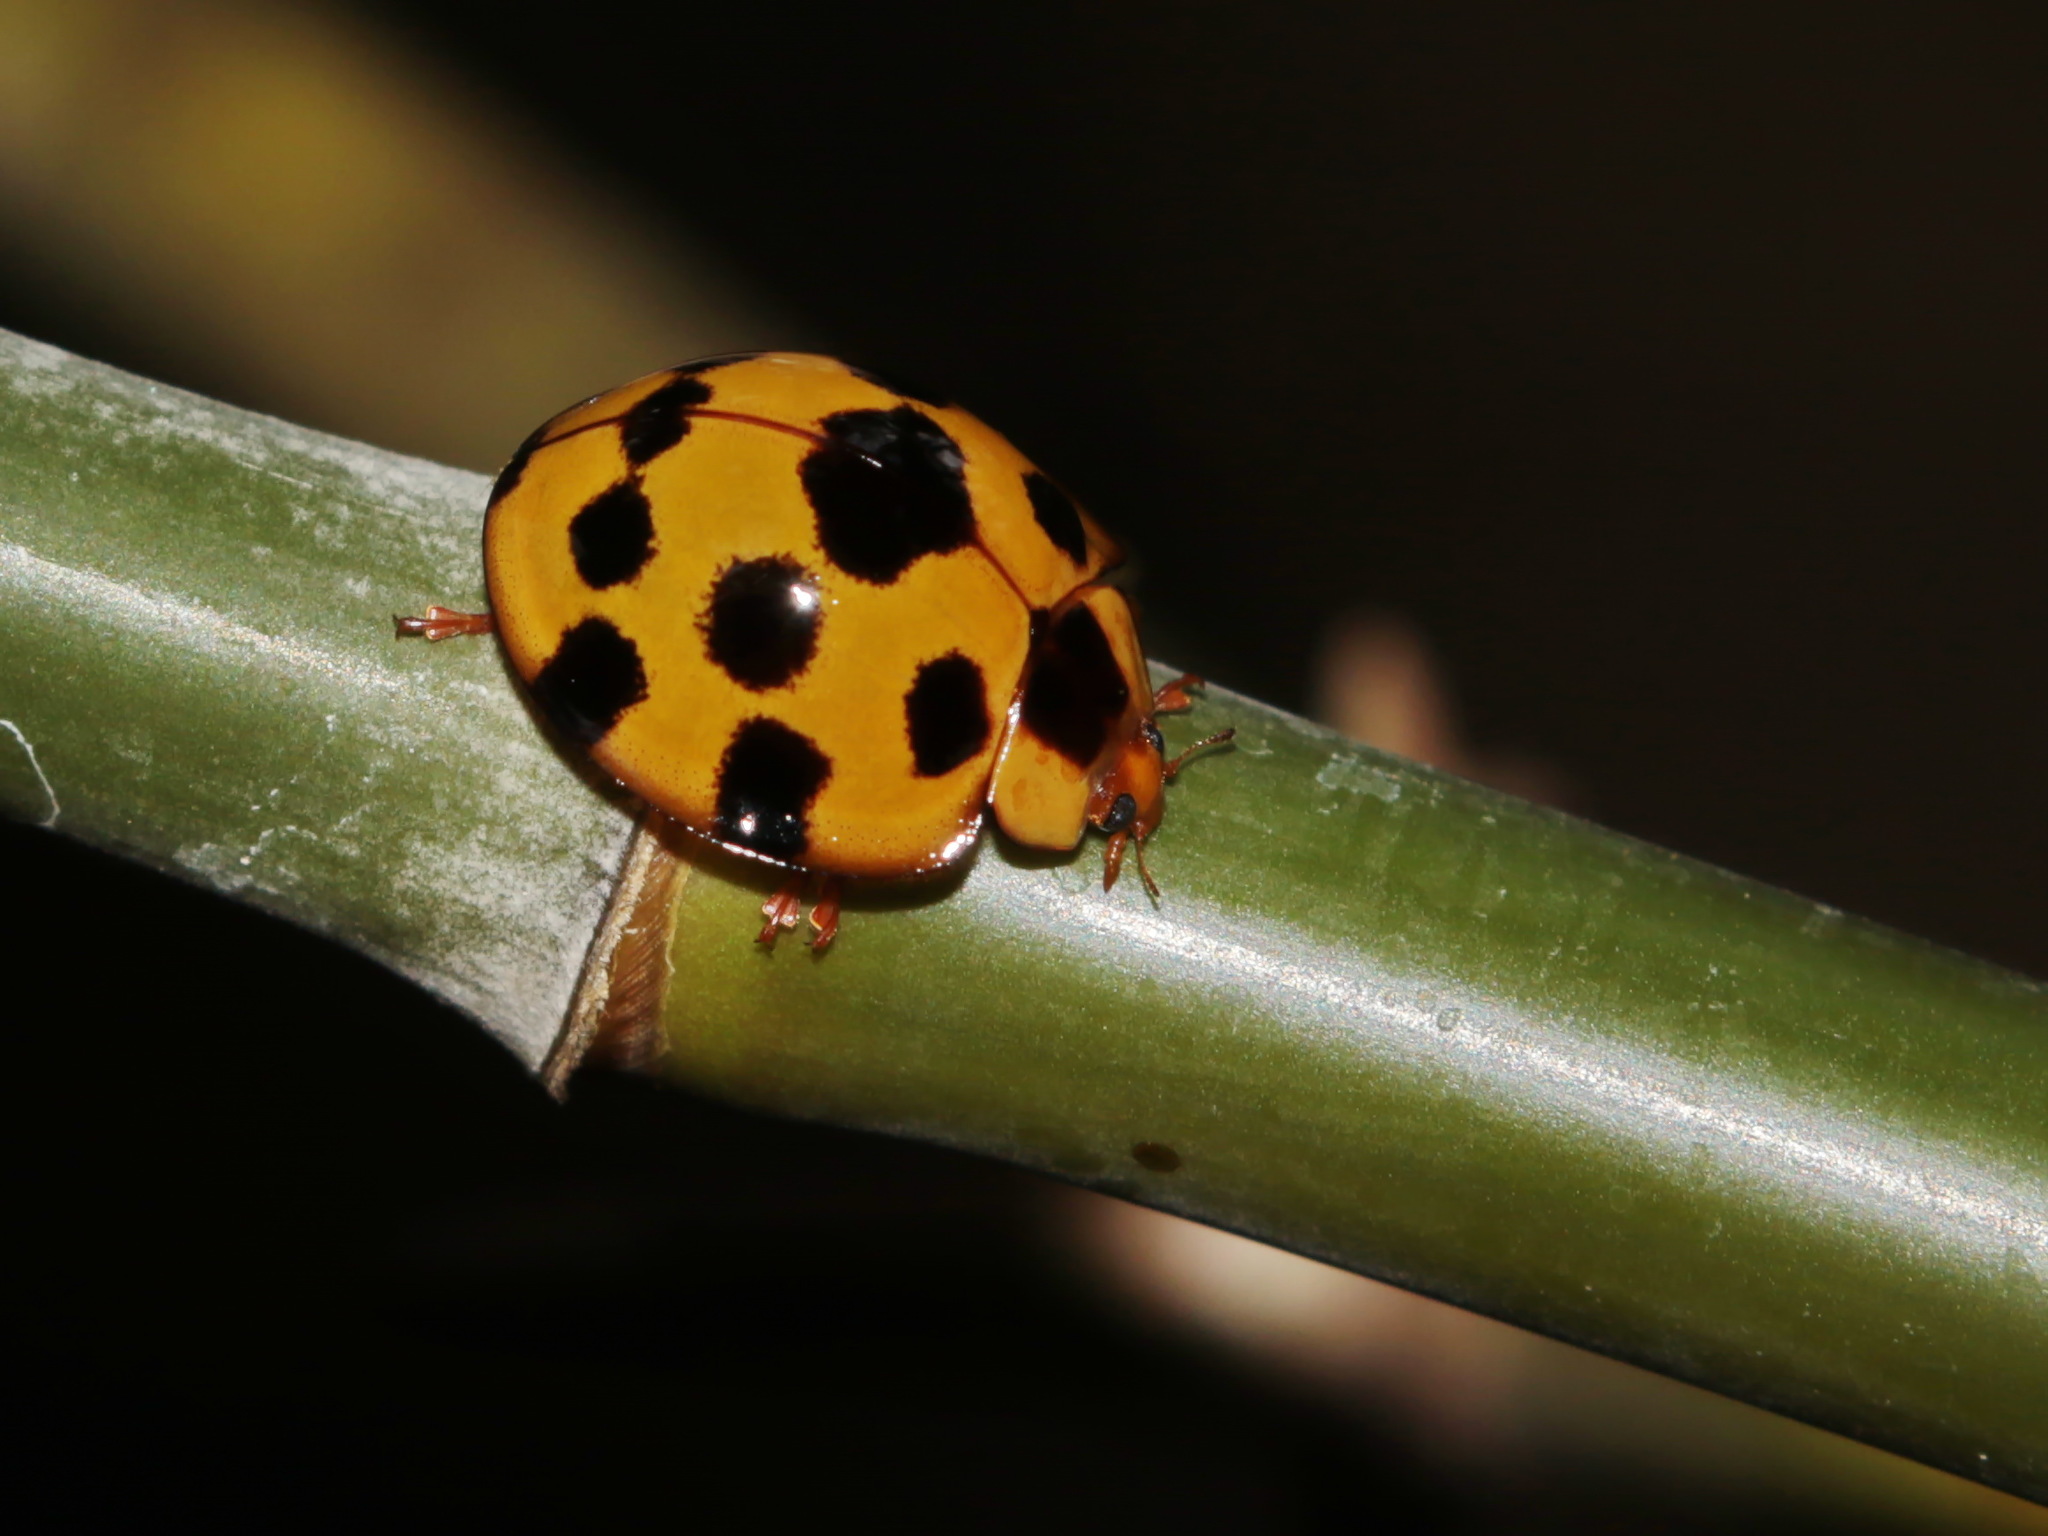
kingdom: Animalia
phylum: Arthropoda
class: Insecta
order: Coleoptera
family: Coccinellidae
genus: Synonycha
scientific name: Synonycha grandis
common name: Lady beetle
